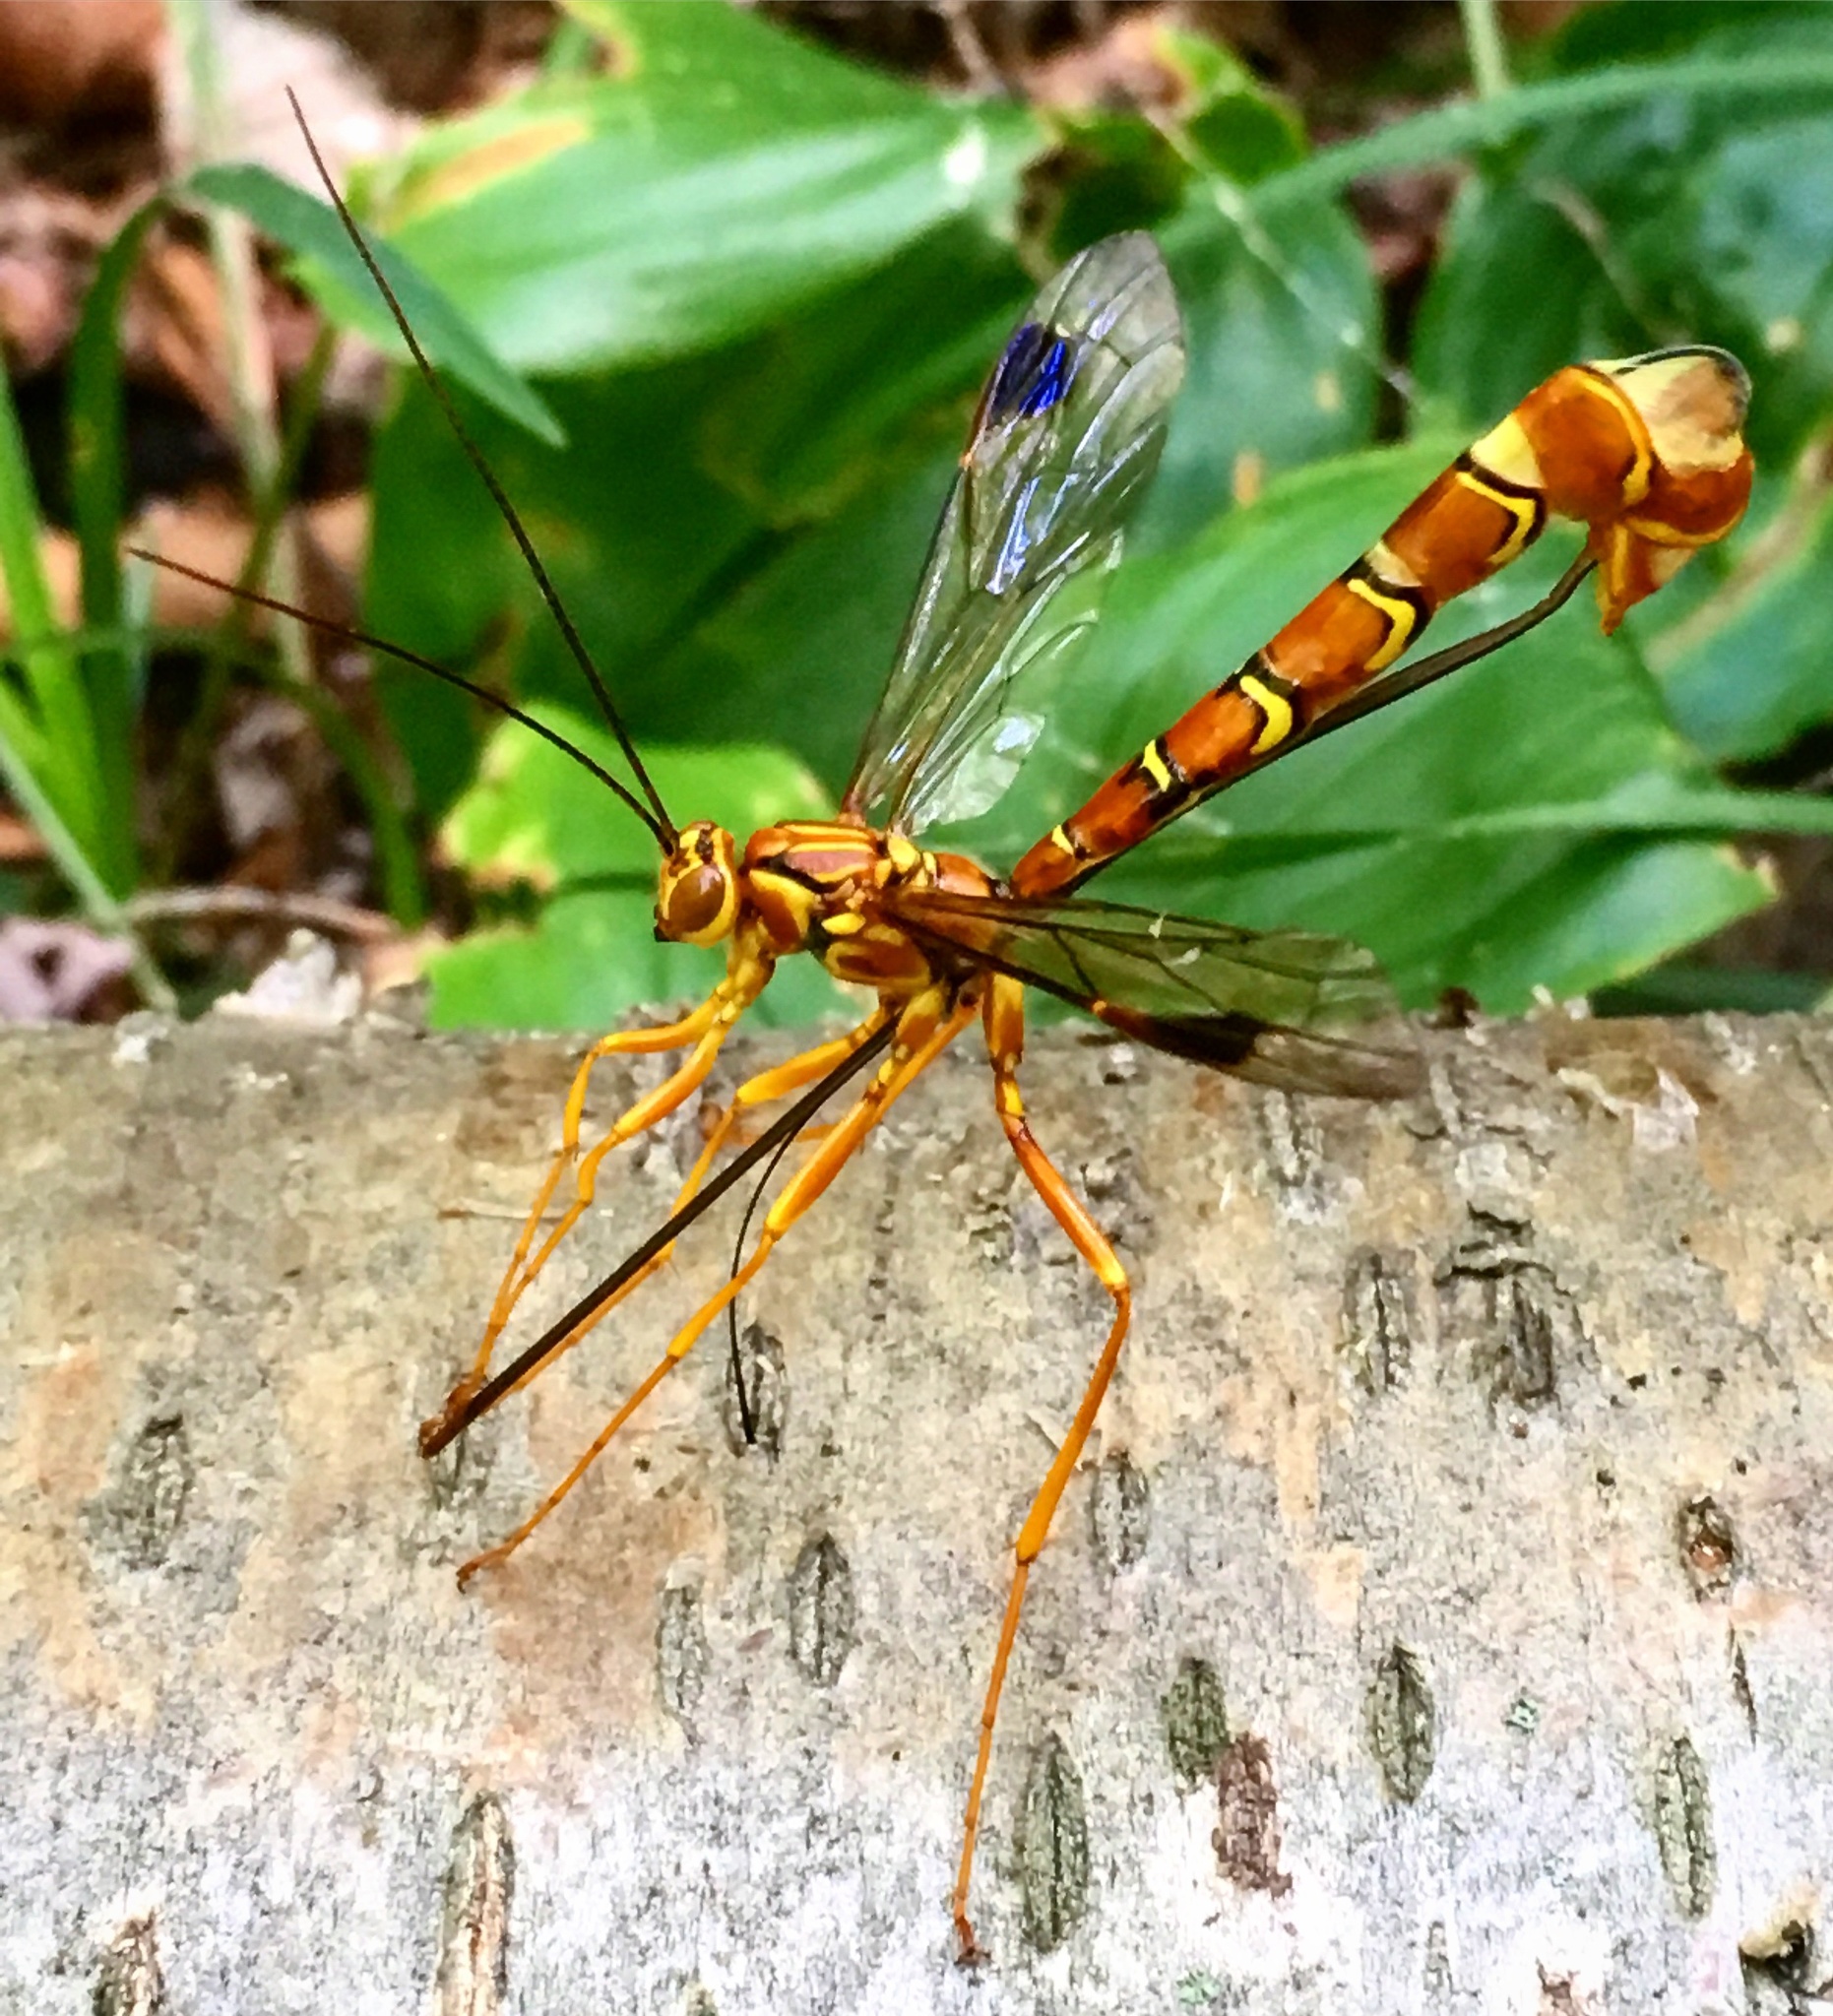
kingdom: Animalia
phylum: Arthropoda
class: Insecta
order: Hymenoptera
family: Ichneumonidae
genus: Megarhyssa
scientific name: Megarhyssa greenei
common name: Greene's giant ichneumonid wasp
